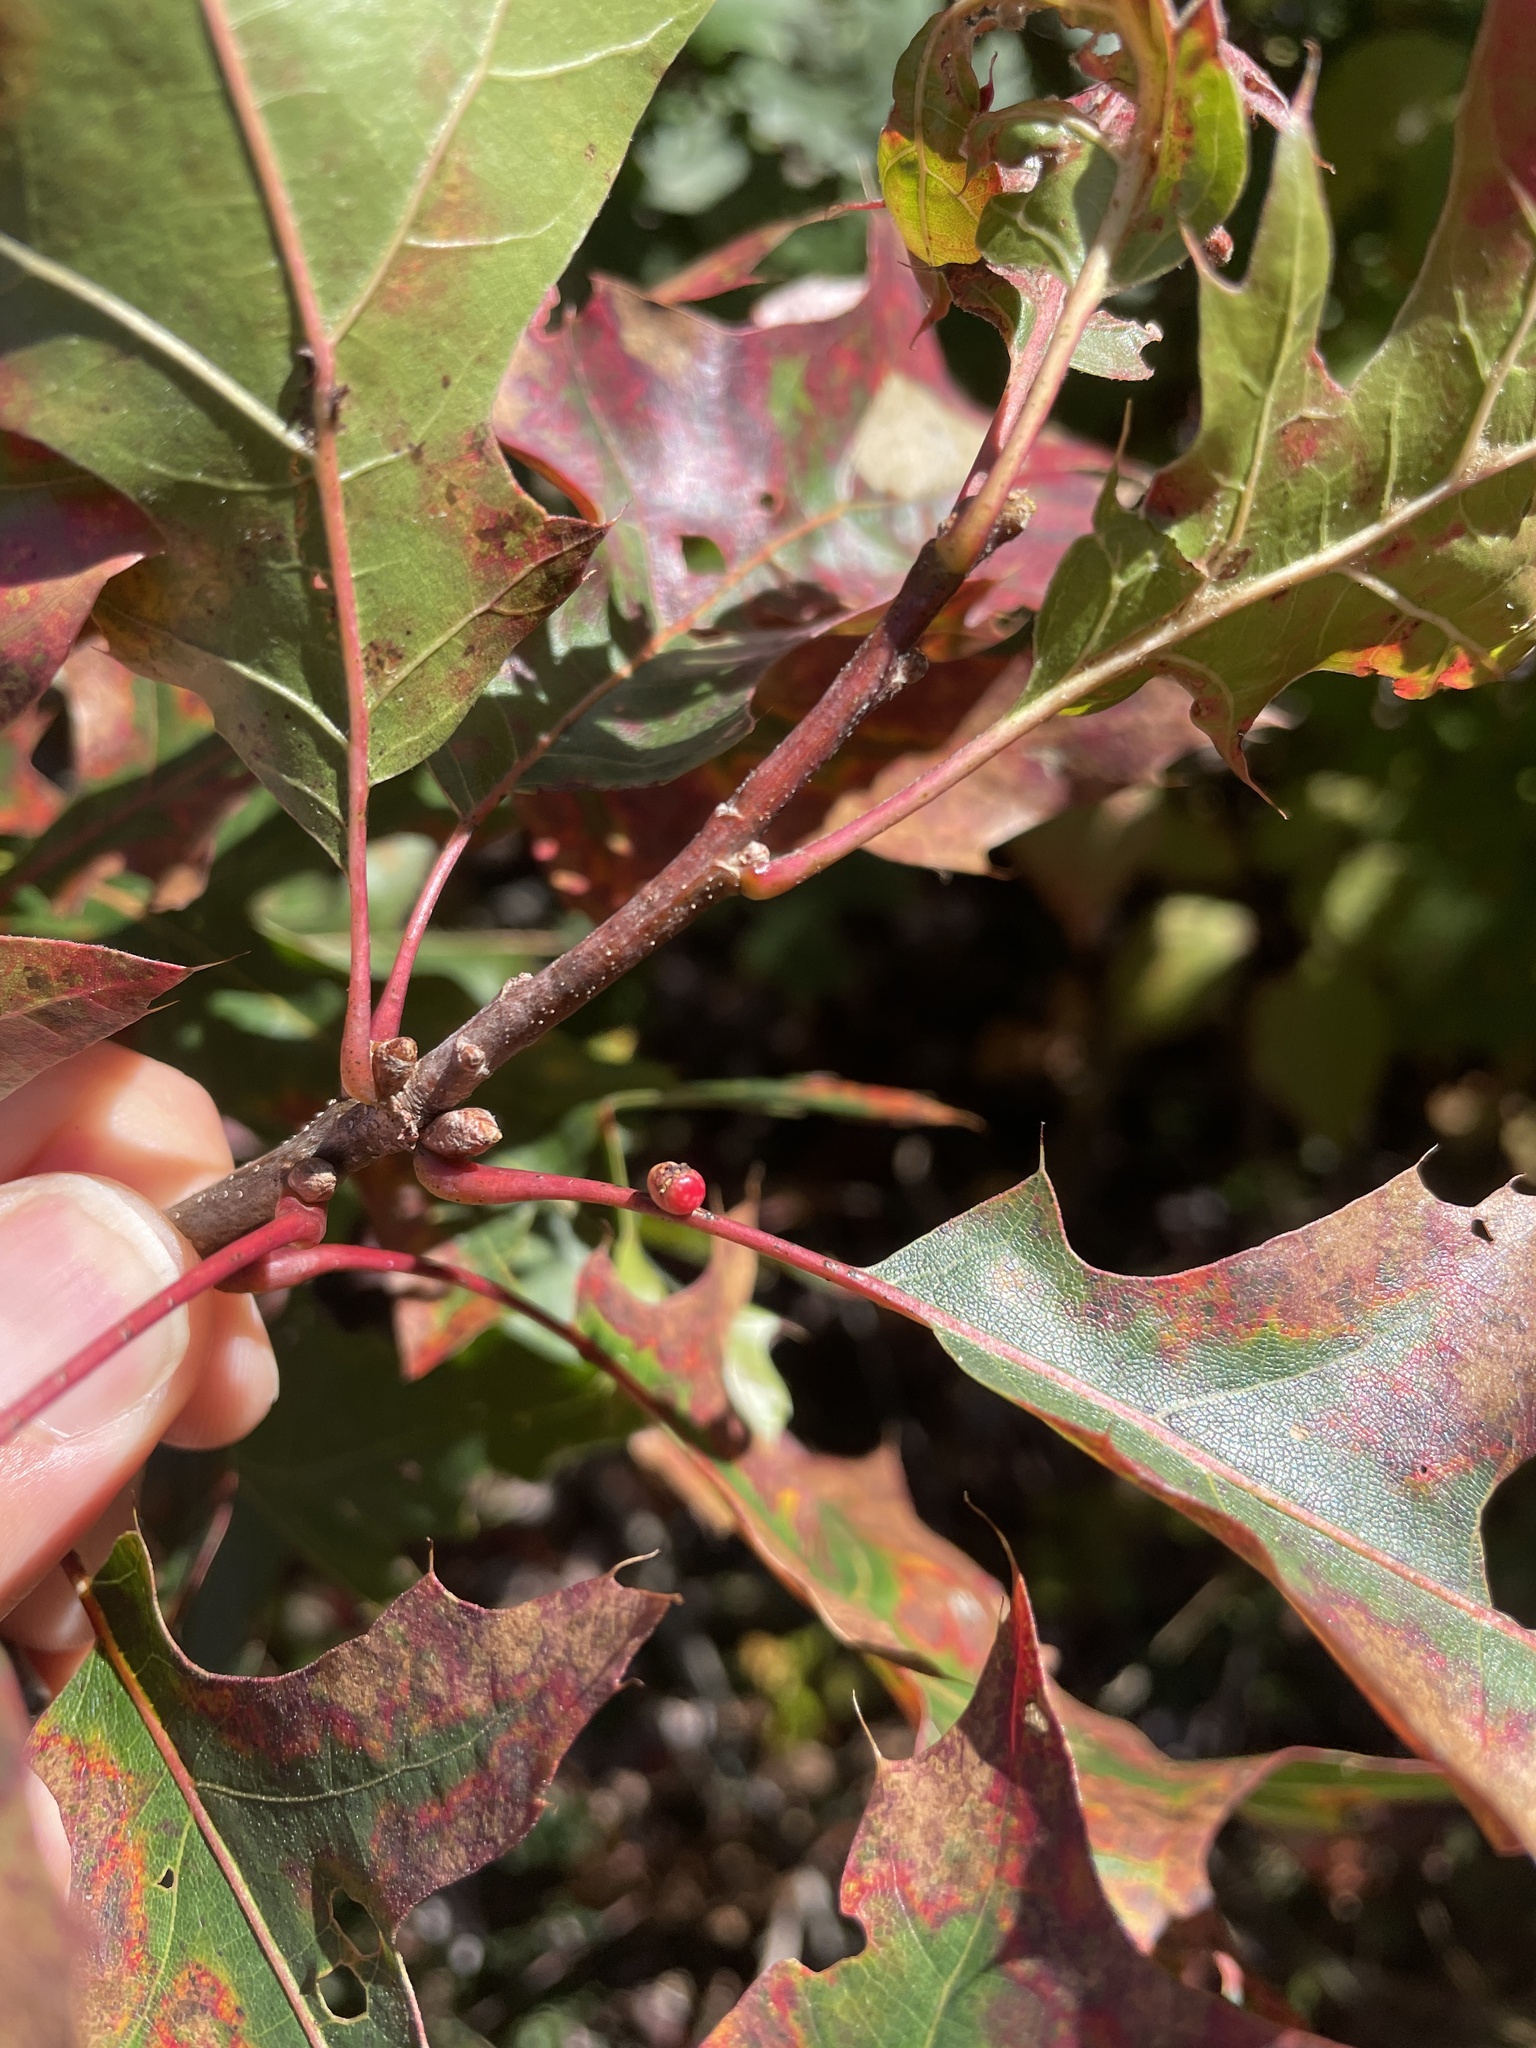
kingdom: Animalia
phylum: Arthropoda
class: Insecta
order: Hymenoptera
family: Cynipidae
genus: Kokkocynips
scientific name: Kokkocynips rileyi
